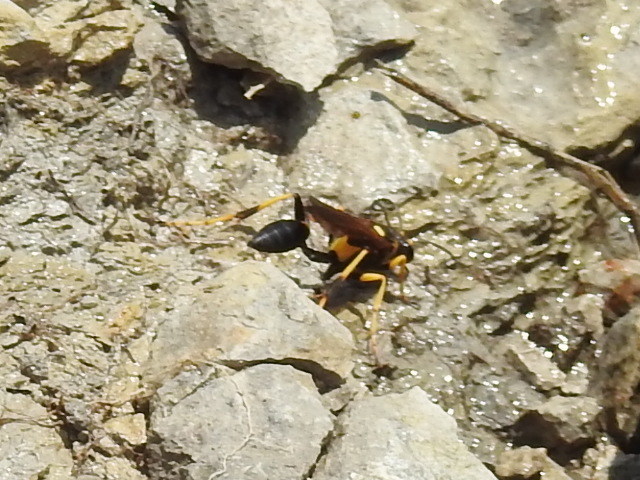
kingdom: Animalia
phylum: Arthropoda
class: Insecta
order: Hymenoptera
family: Sphecidae
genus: Sceliphron
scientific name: Sceliphron caementarium
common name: Mud dauber
